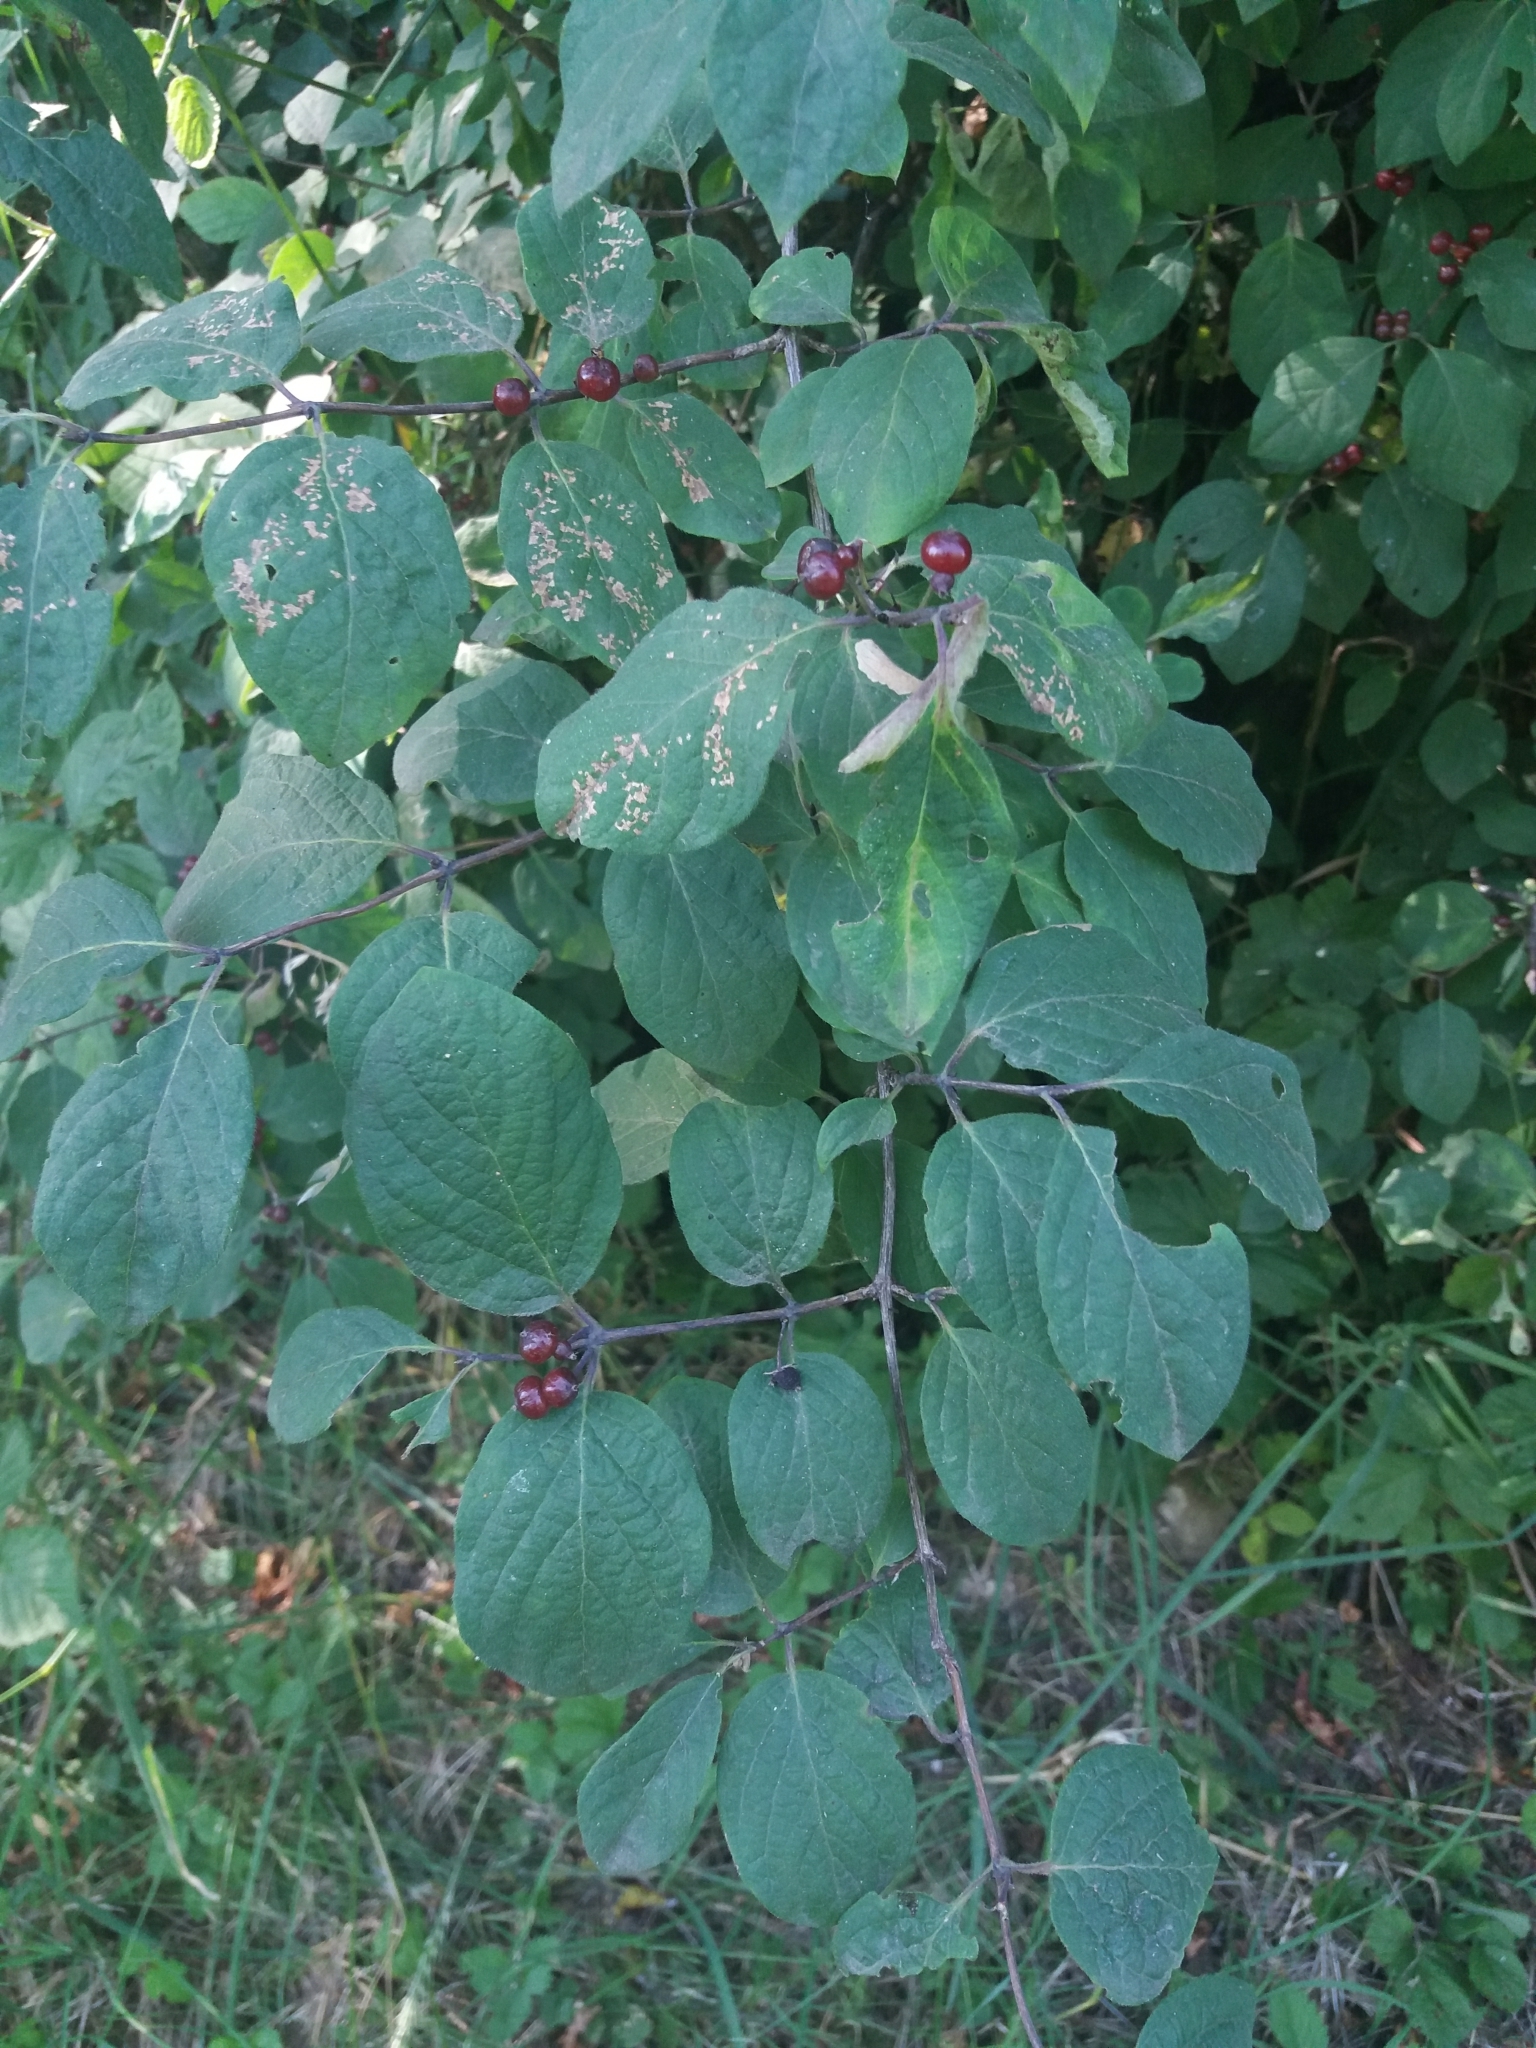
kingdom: Plantae
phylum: Tracheophyta
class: Magnoliopsida
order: Dipsacales
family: Caprifoliaceae
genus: Lonicera
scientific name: Lonicera xylosteum
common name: Fly honeysuckle
